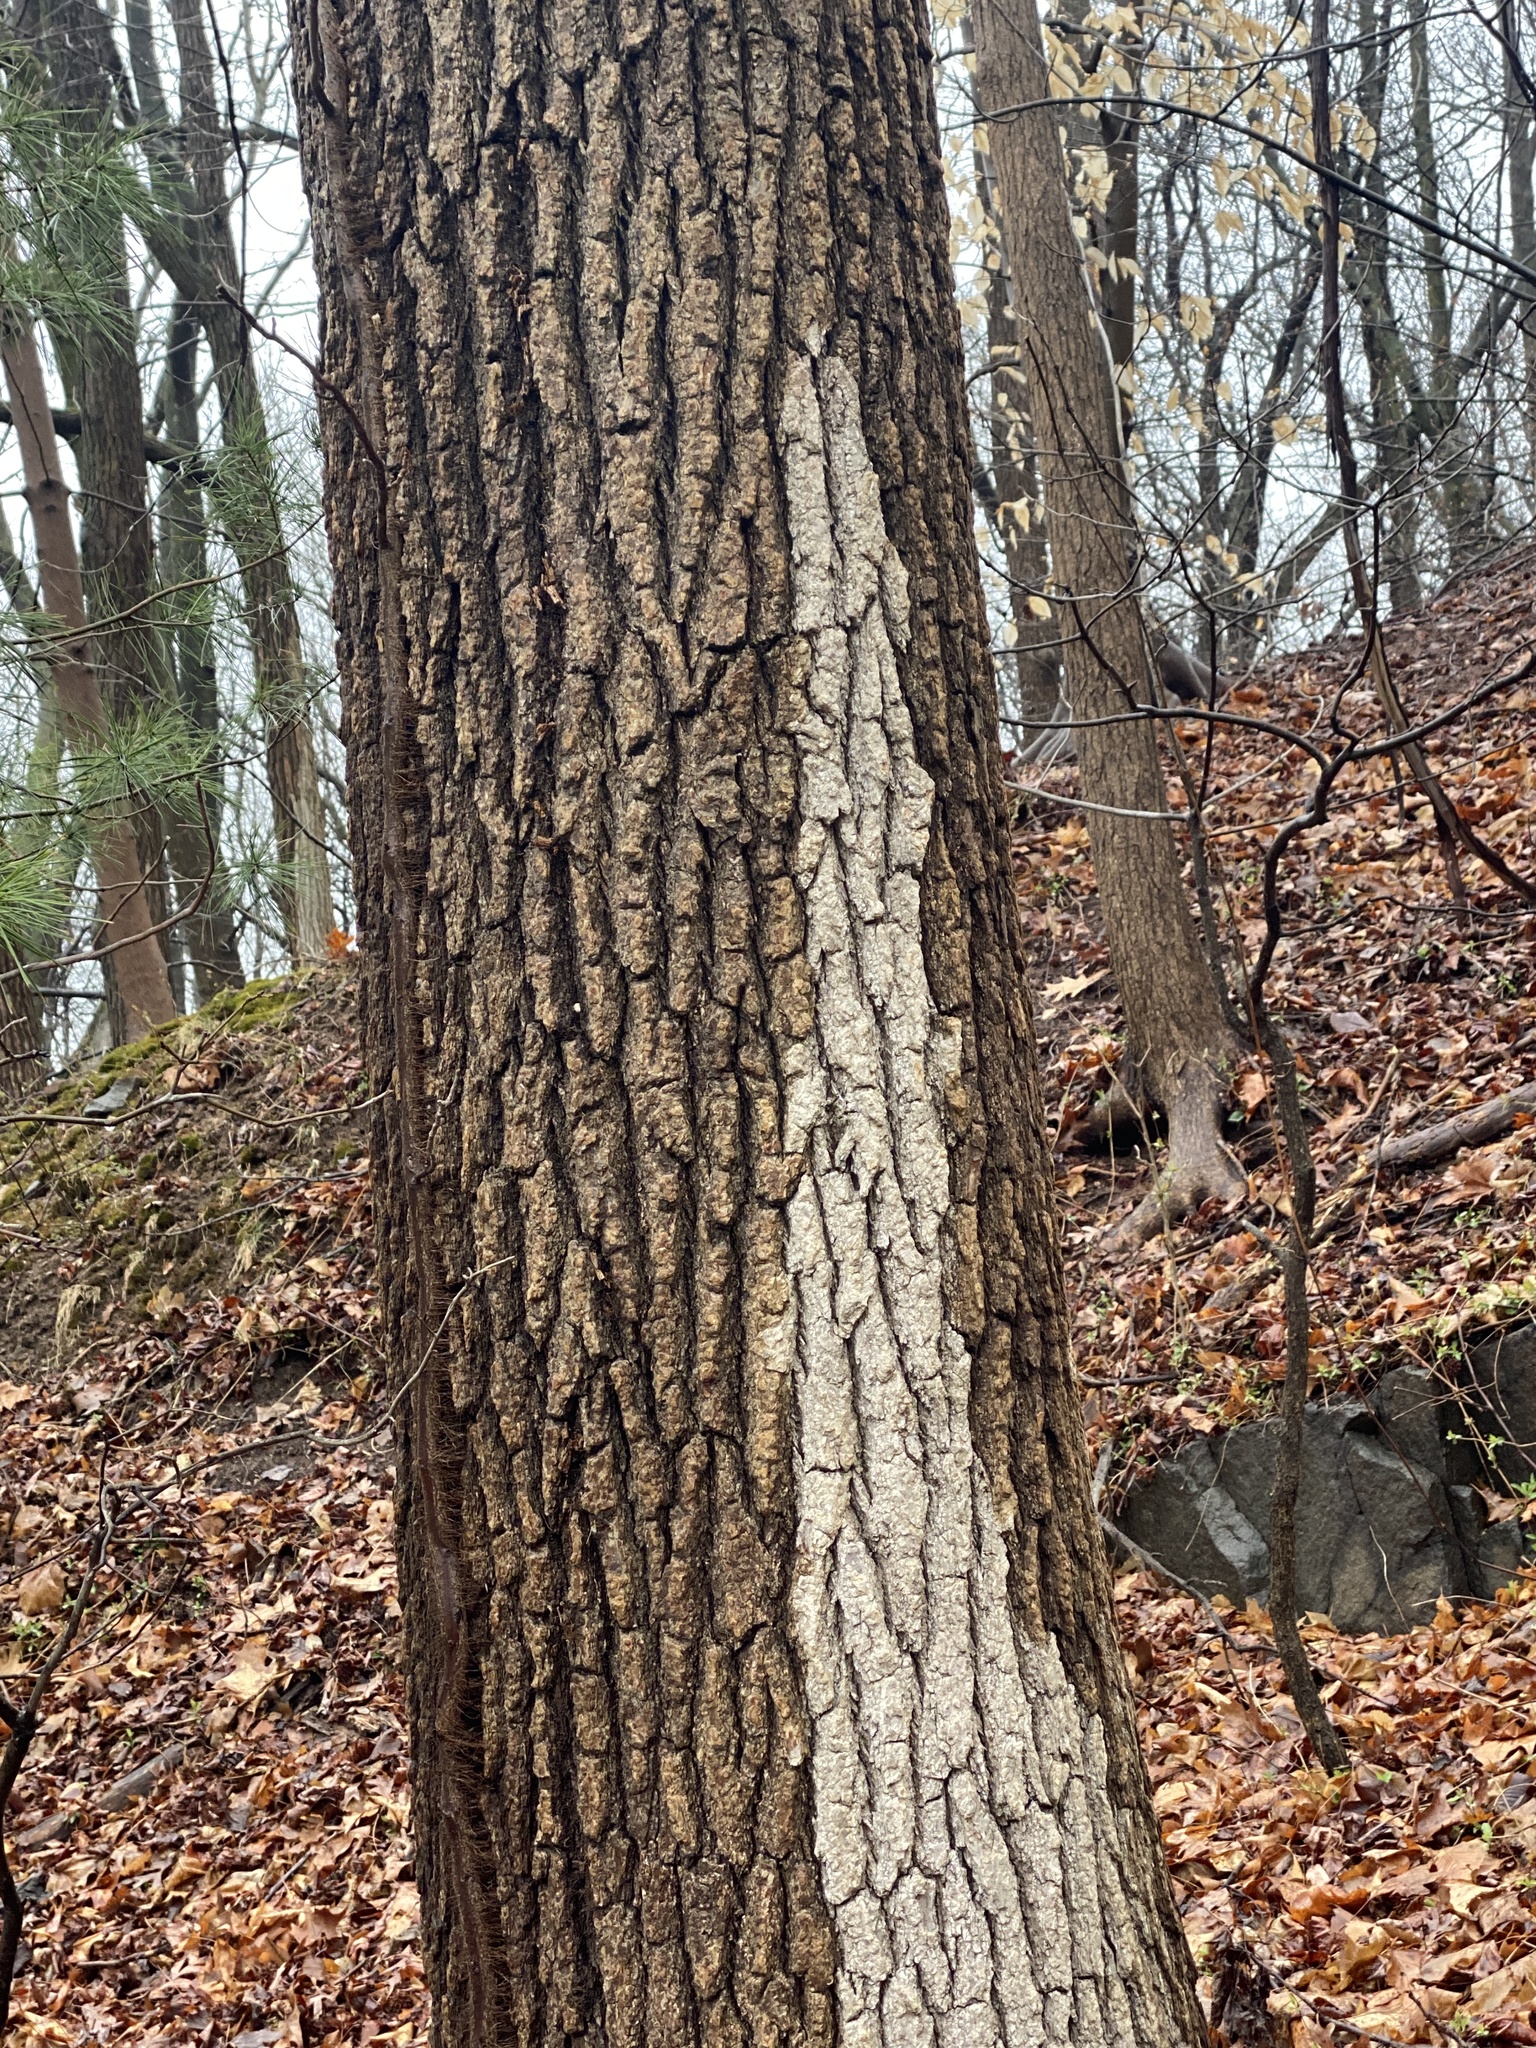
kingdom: Plantae
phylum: Tracheophyta
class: Magnoliopsida
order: Saxifragales
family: Altingiaceae
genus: Liquidambar
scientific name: Liquidambar styraciflua
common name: Sweet gum
